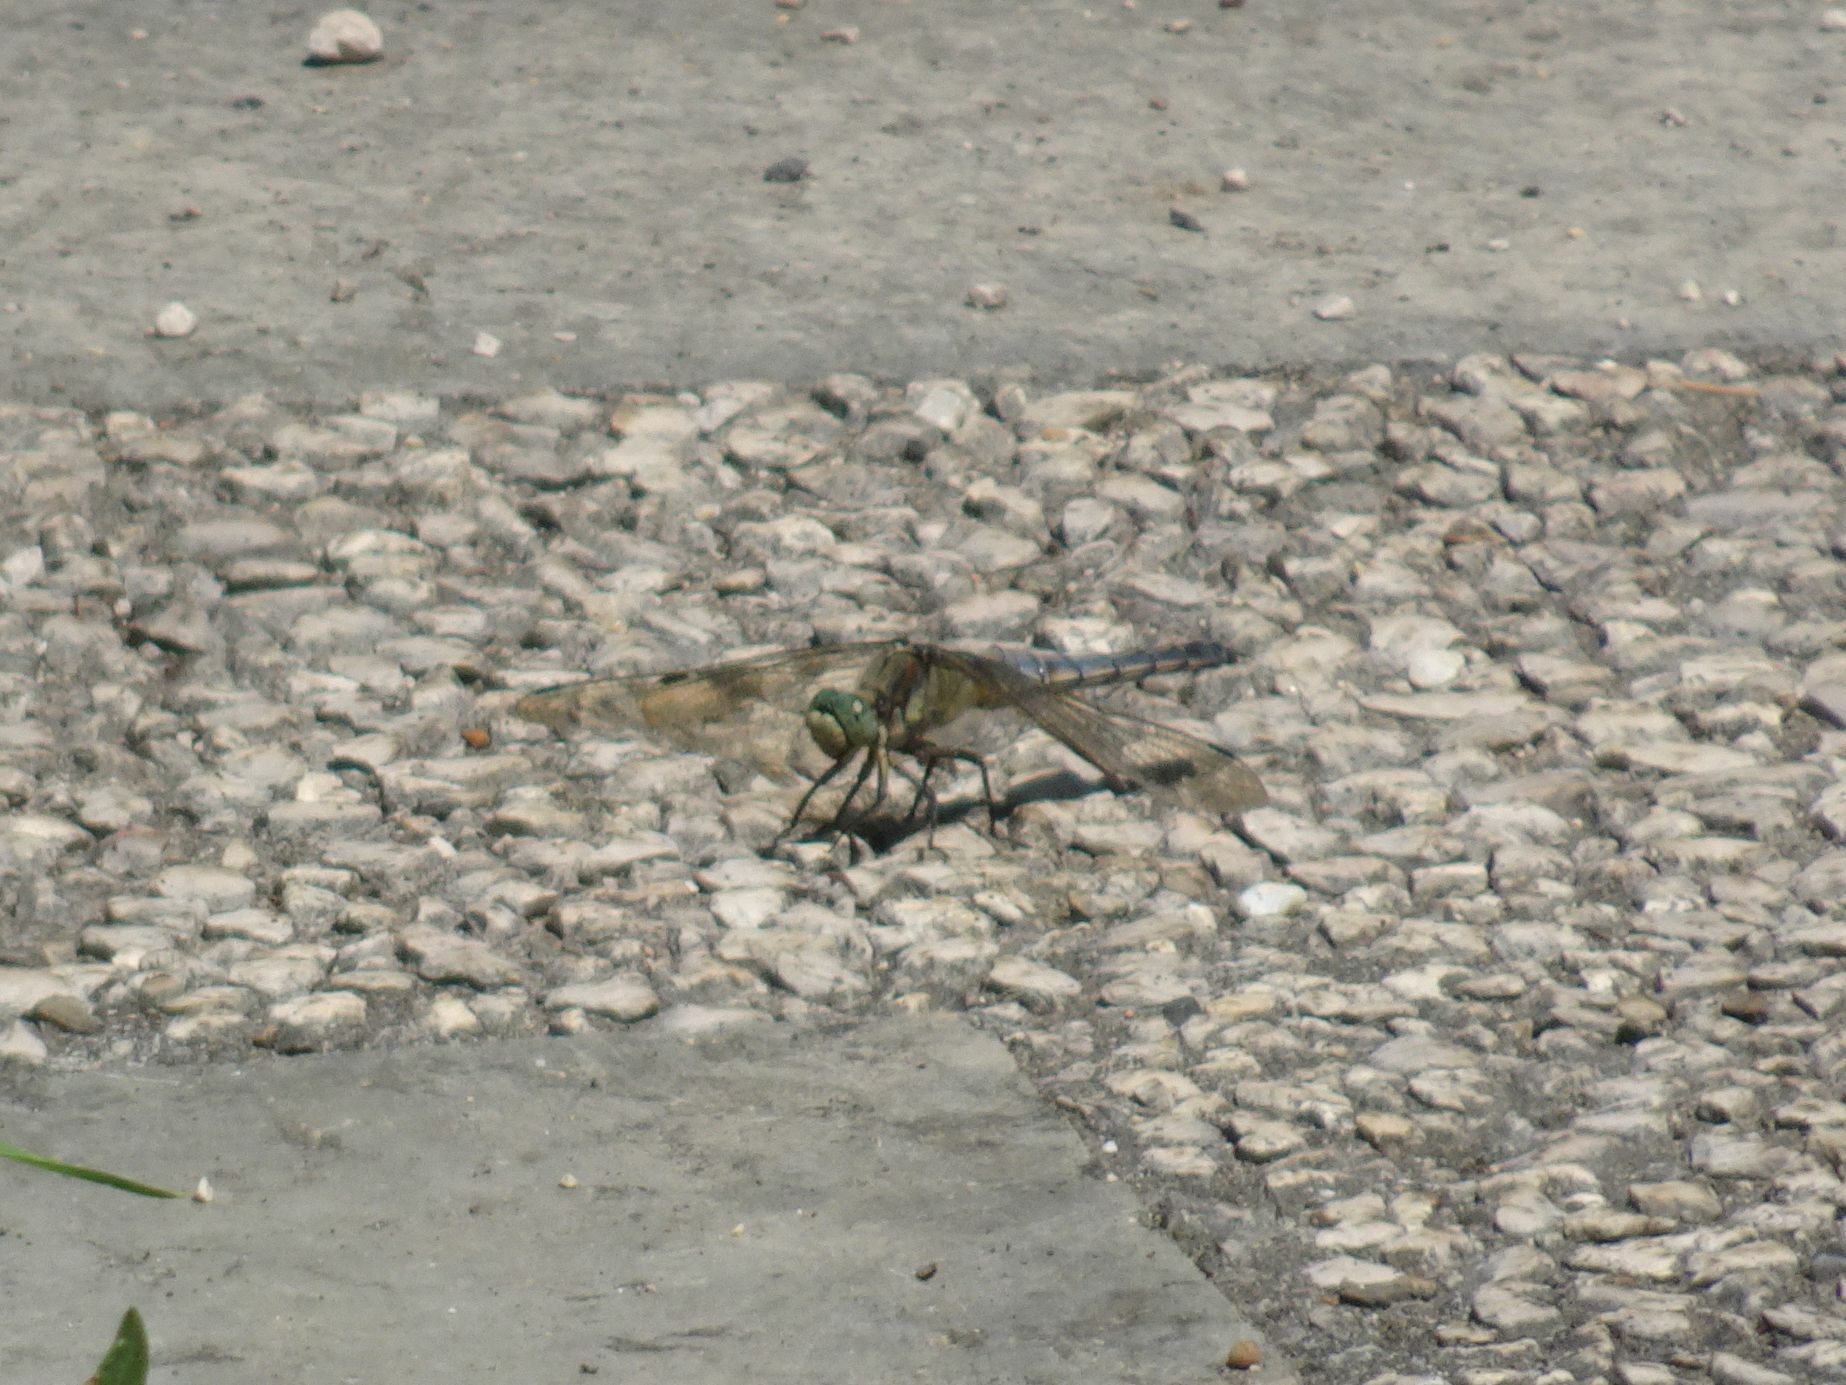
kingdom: Animalia
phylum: Arthropoda
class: Insecta
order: Odonata
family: Libellulidae
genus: Orthetrum
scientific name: Orthetrum cancellatum
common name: Black-tailed skimmer
